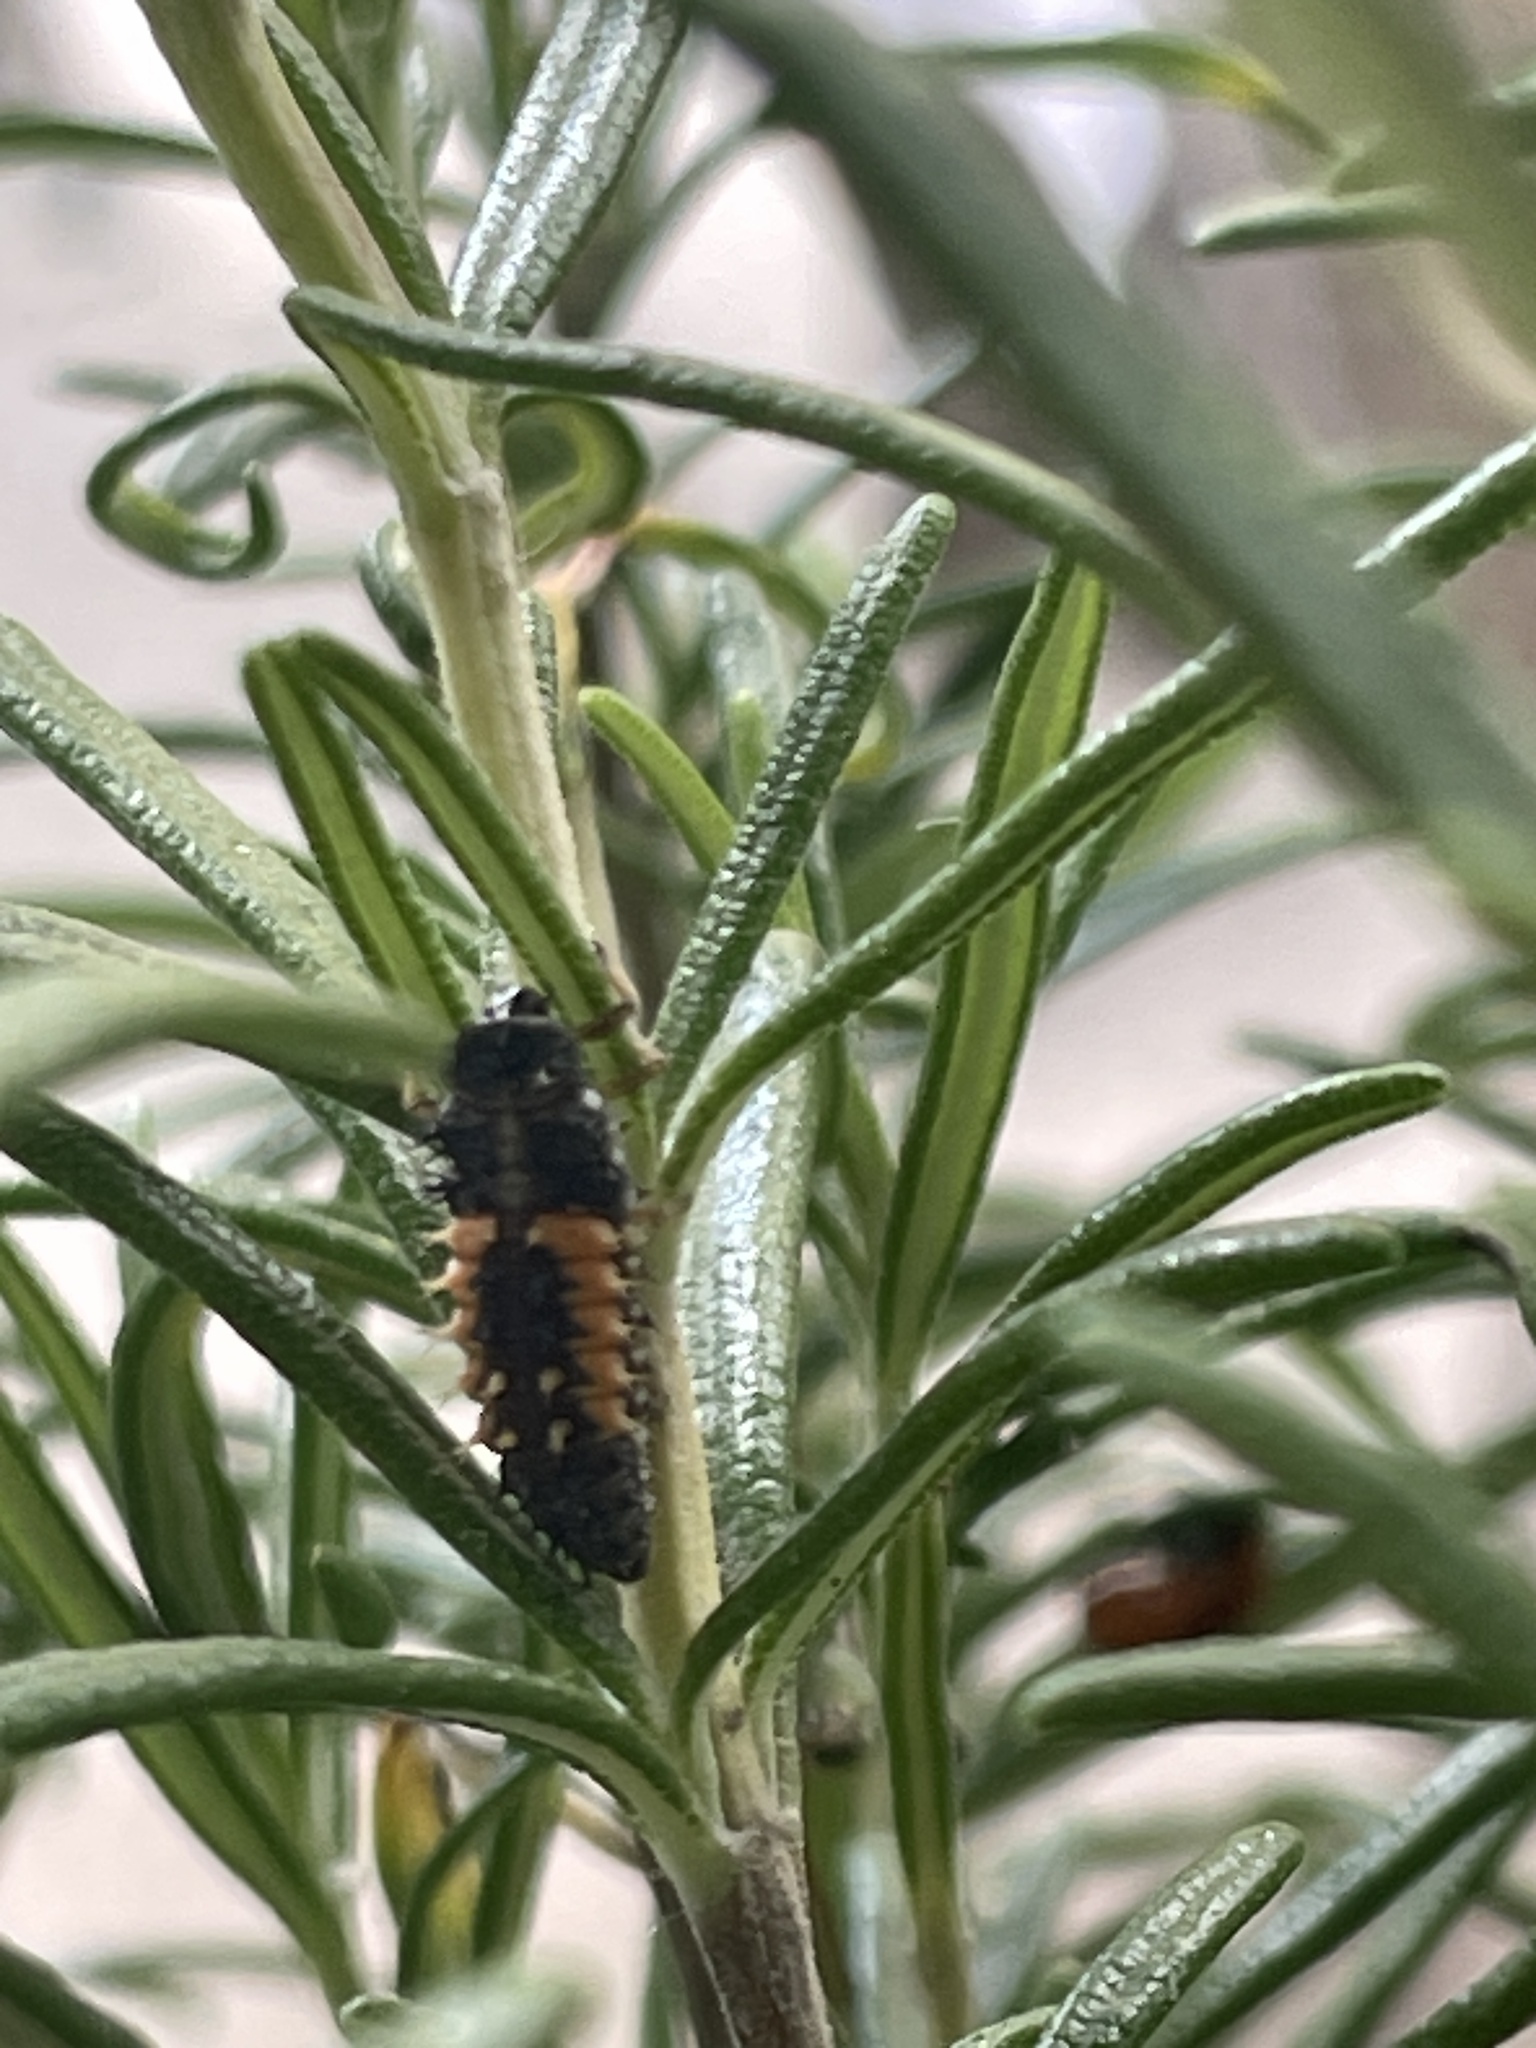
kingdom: Animalia
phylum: Arthropoda
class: Insecta
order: Coleoptera
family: Coccinellidae
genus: Harmonia
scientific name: Harmonia axyridis
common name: Harlequin ladybird
